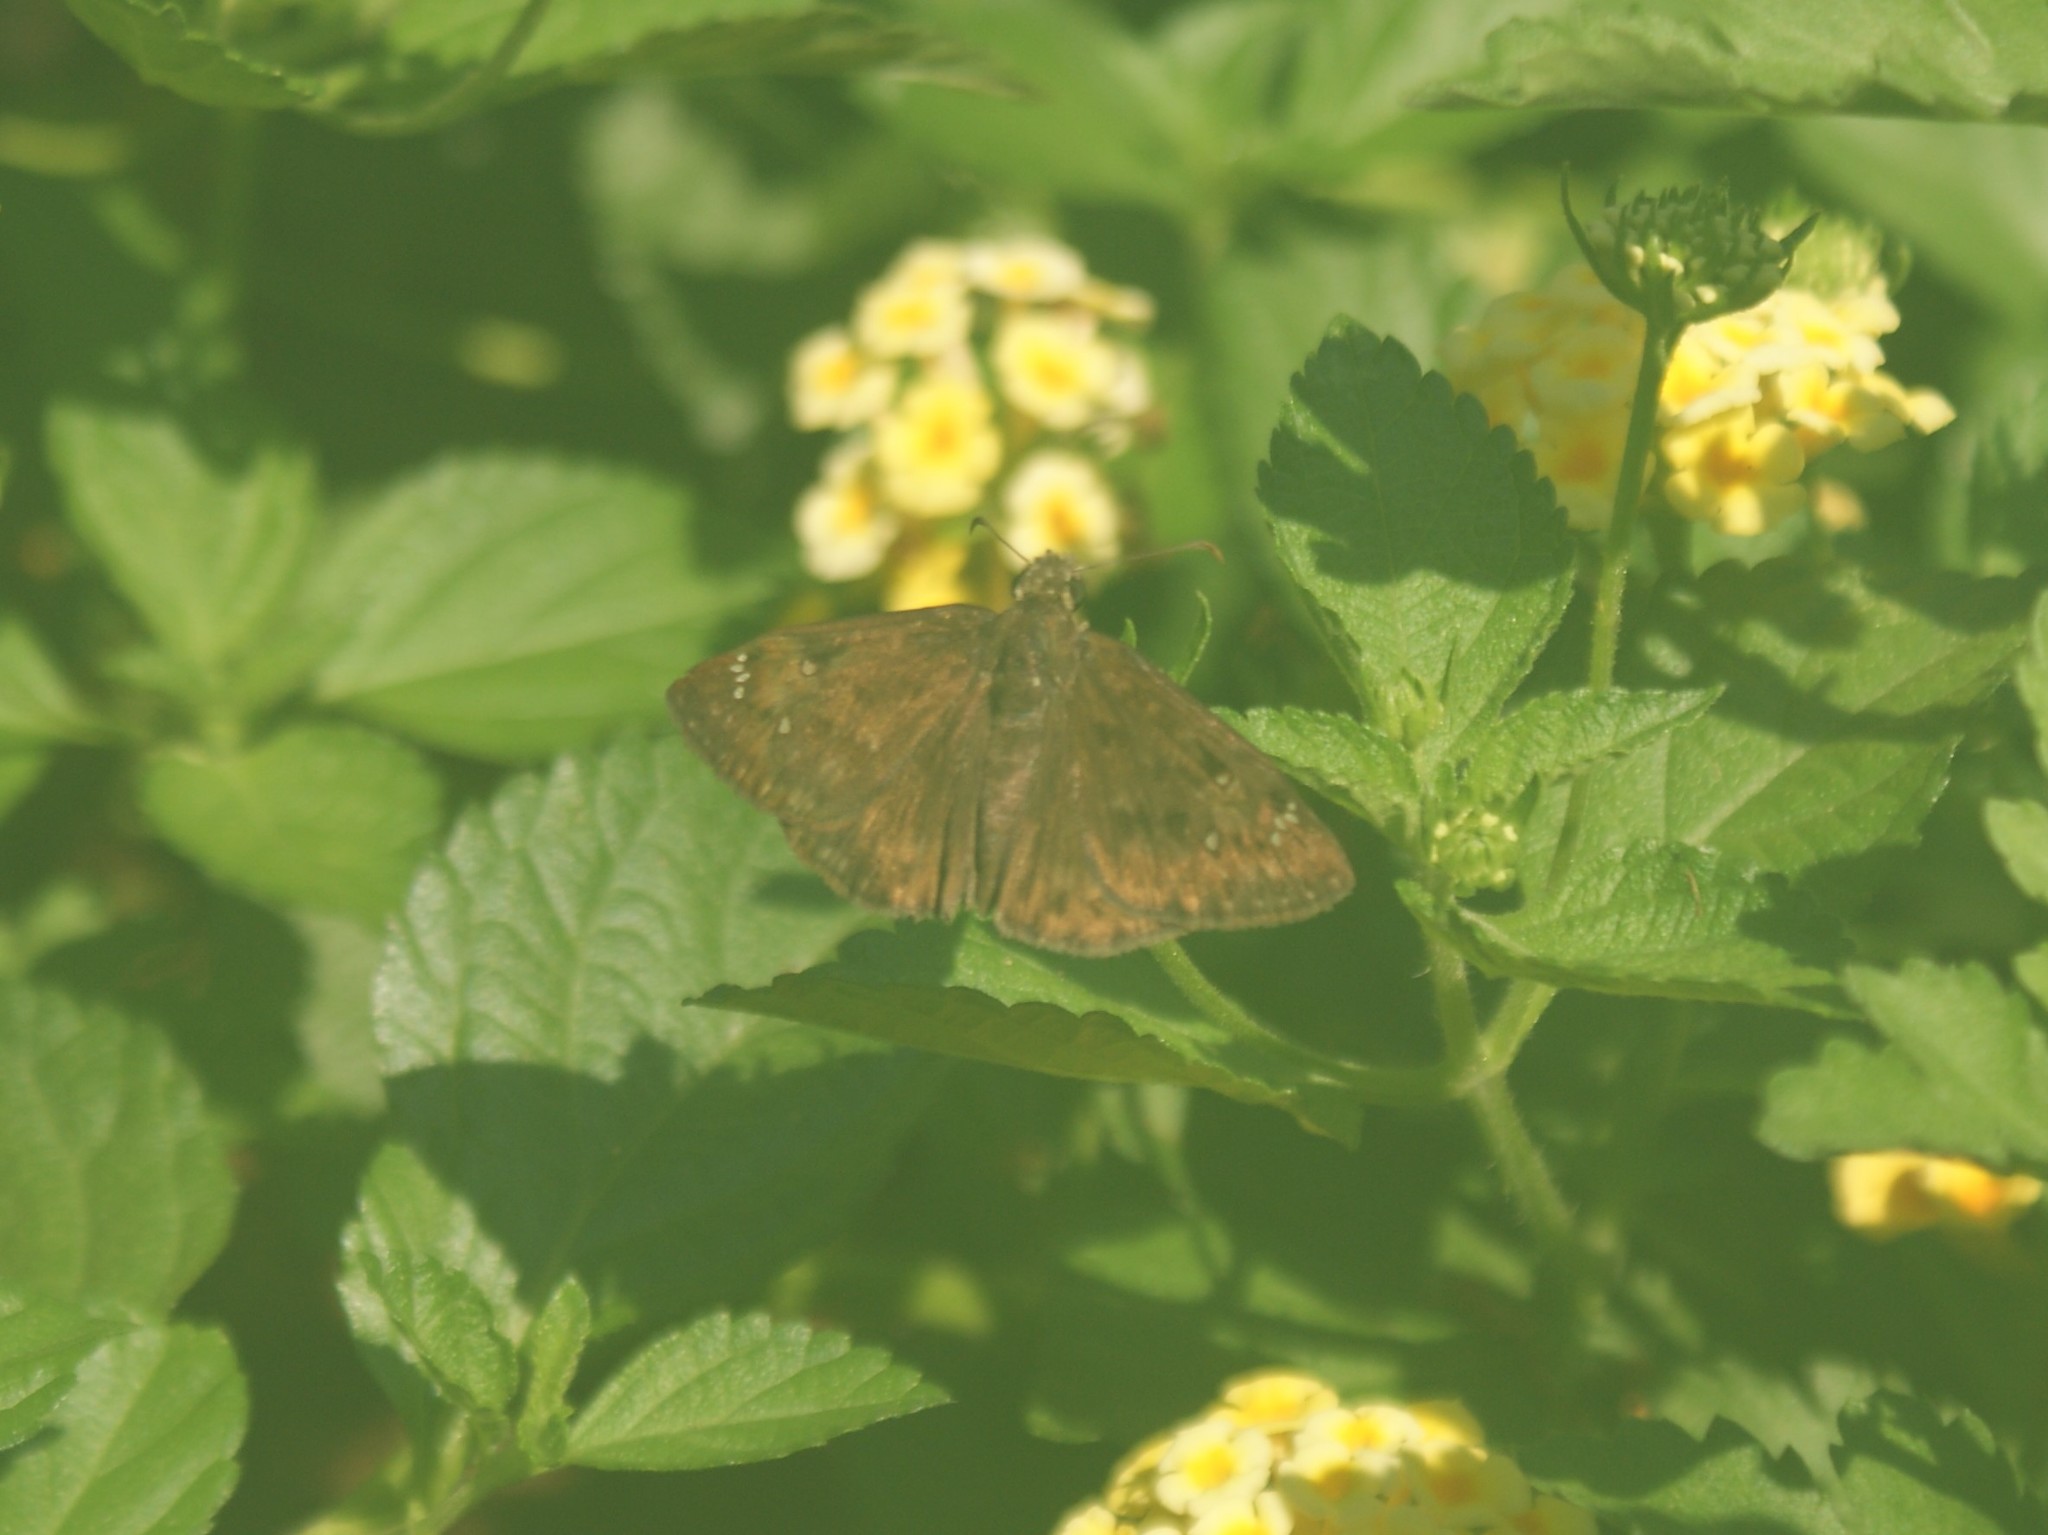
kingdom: Animalia
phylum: Arthropoda
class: Insecta
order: Lepidoptera
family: Hesperiidae
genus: Erynnis
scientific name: Erynnis horatius
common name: Horace's duskywing
